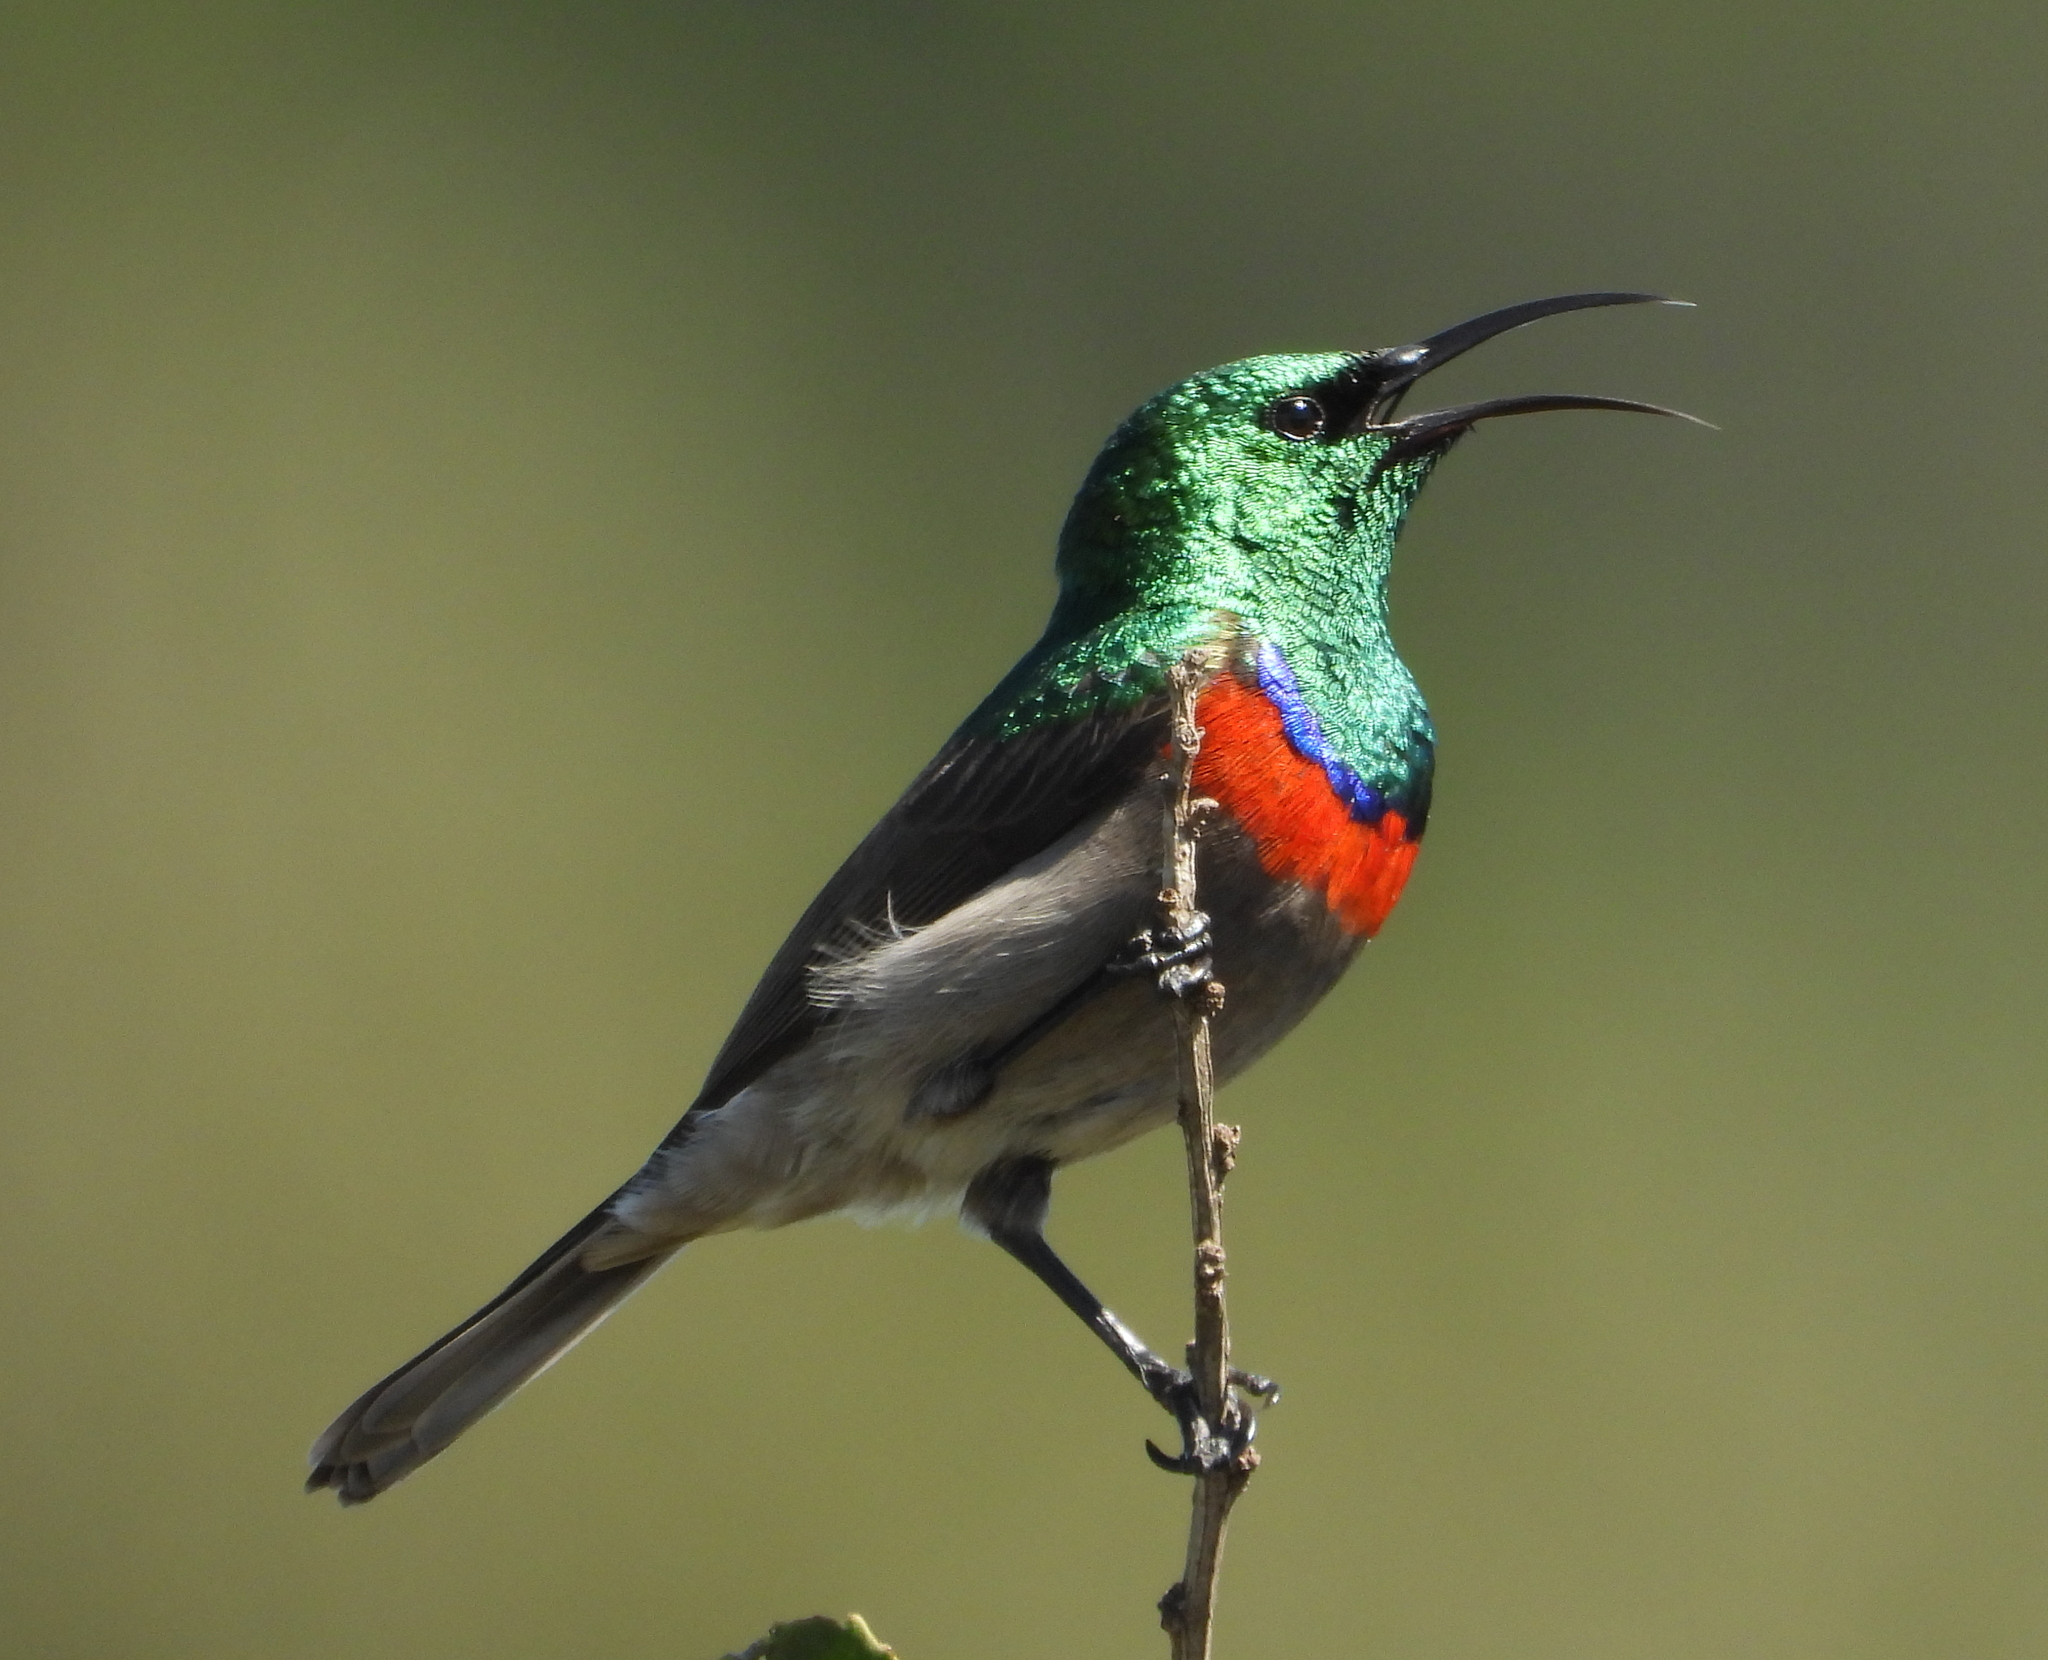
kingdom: Animalia
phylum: Chordata
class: Aves
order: Passeriformes
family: Nectariniidae
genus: Cinnyris
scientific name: Cinnyris chalybeus
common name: Southern double-collared sunbird
